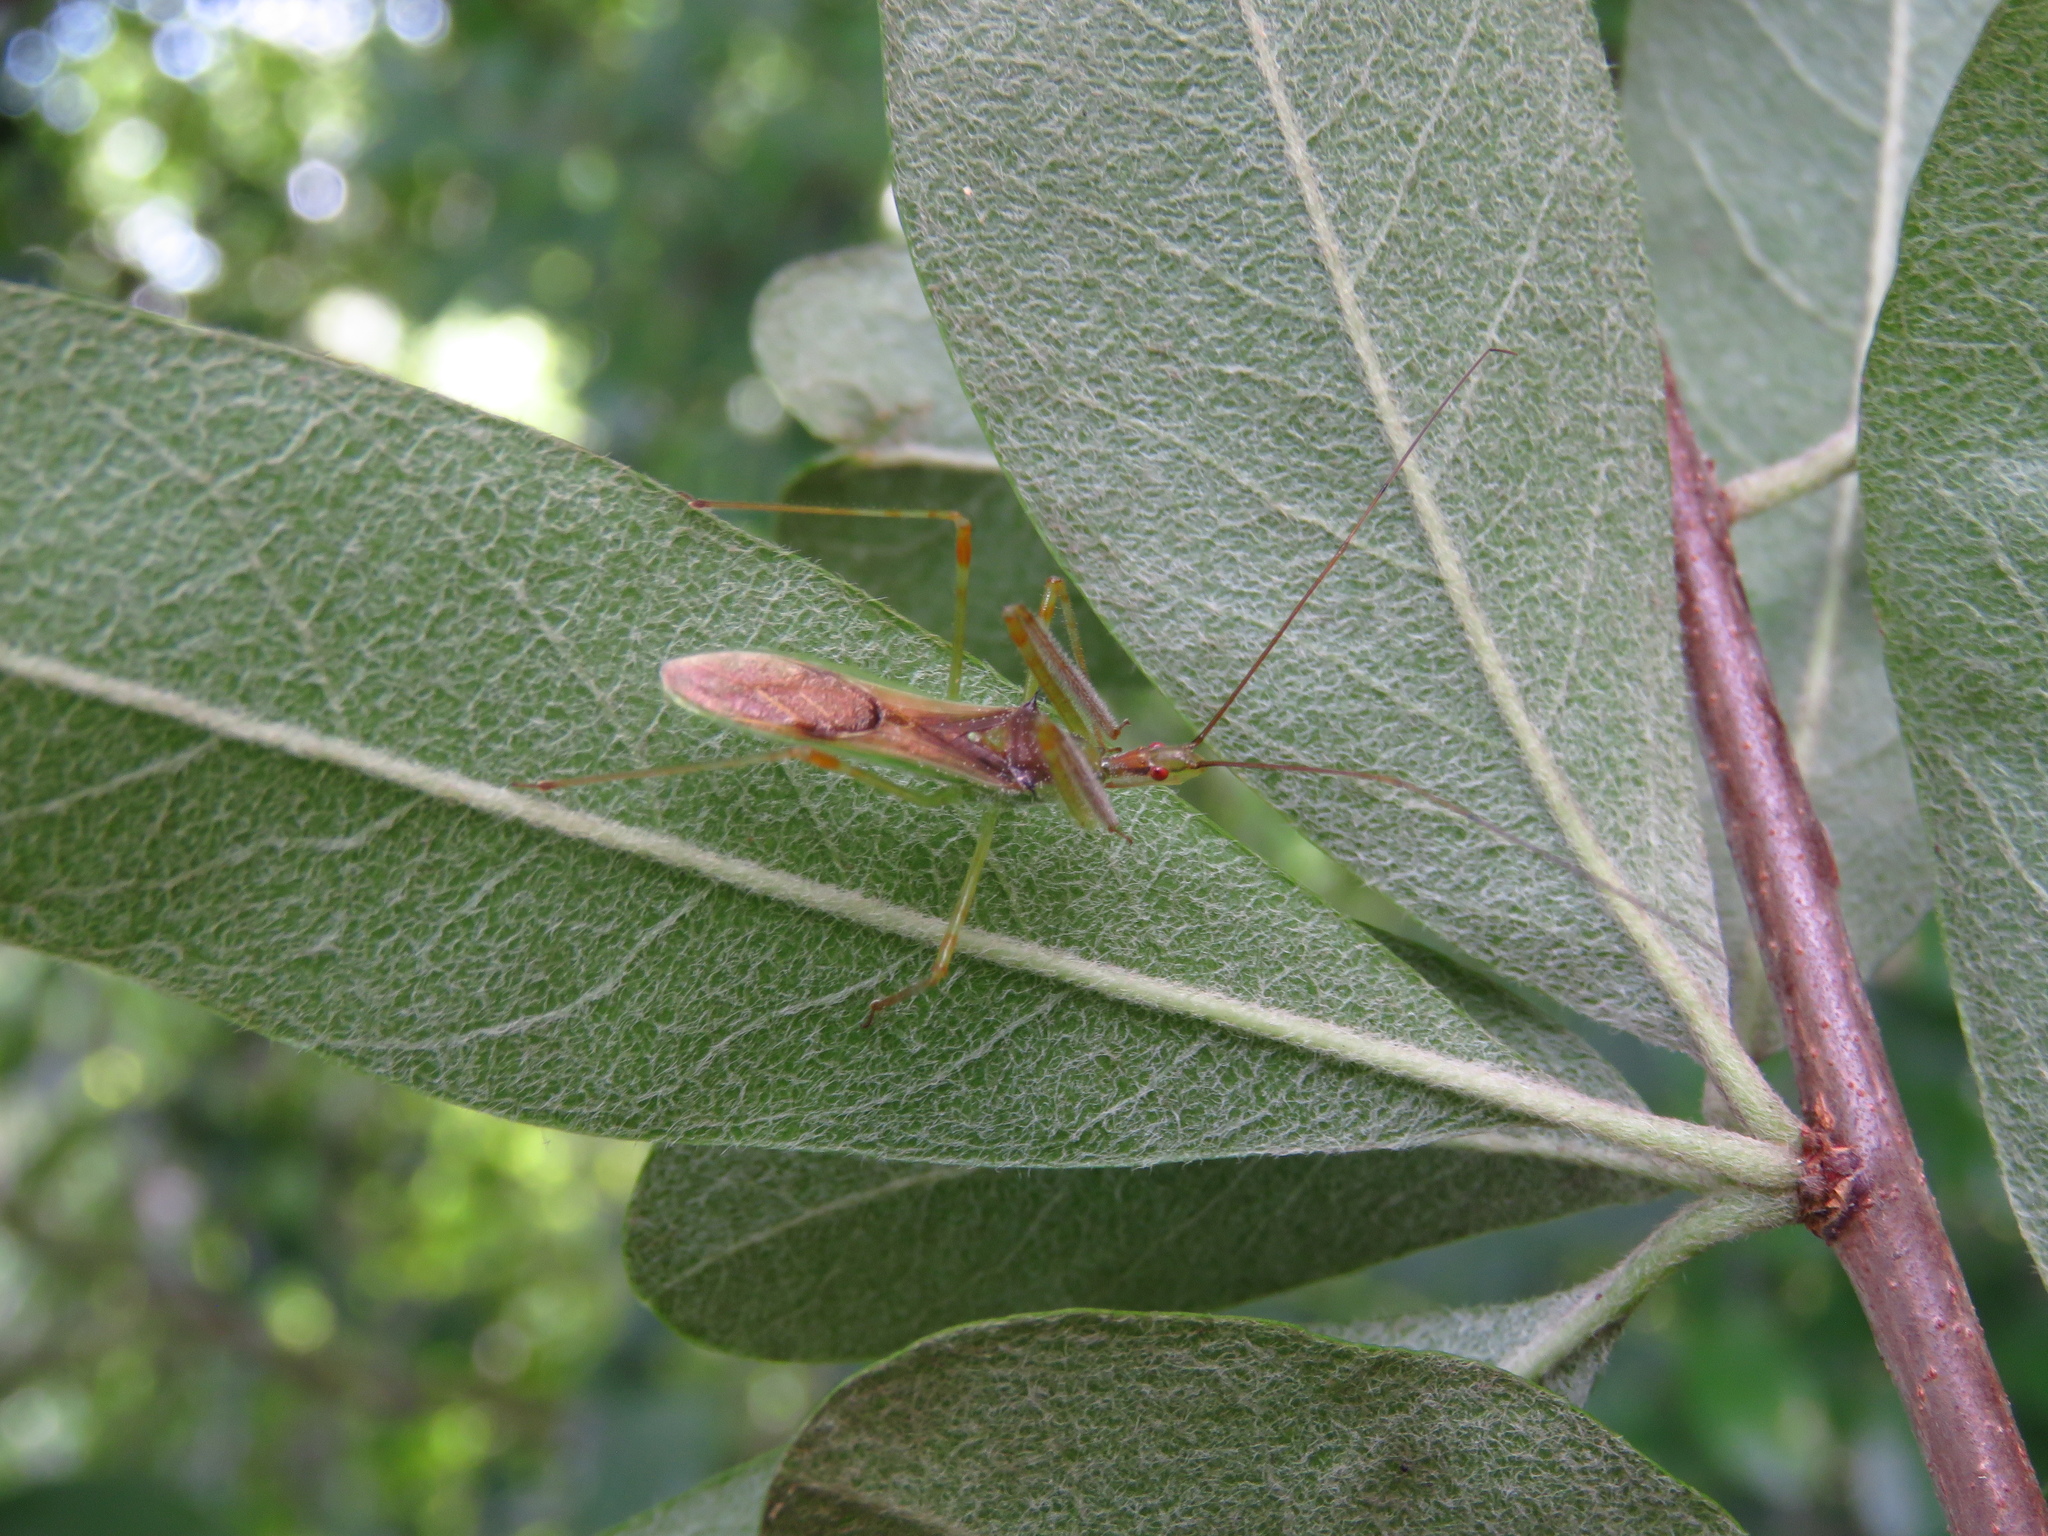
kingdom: Animalia
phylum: Arthropoda
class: Insecta
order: Hemiptera
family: Reduviidae
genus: Zelus
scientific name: Zelus luridus
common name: Pale green assassin bug
